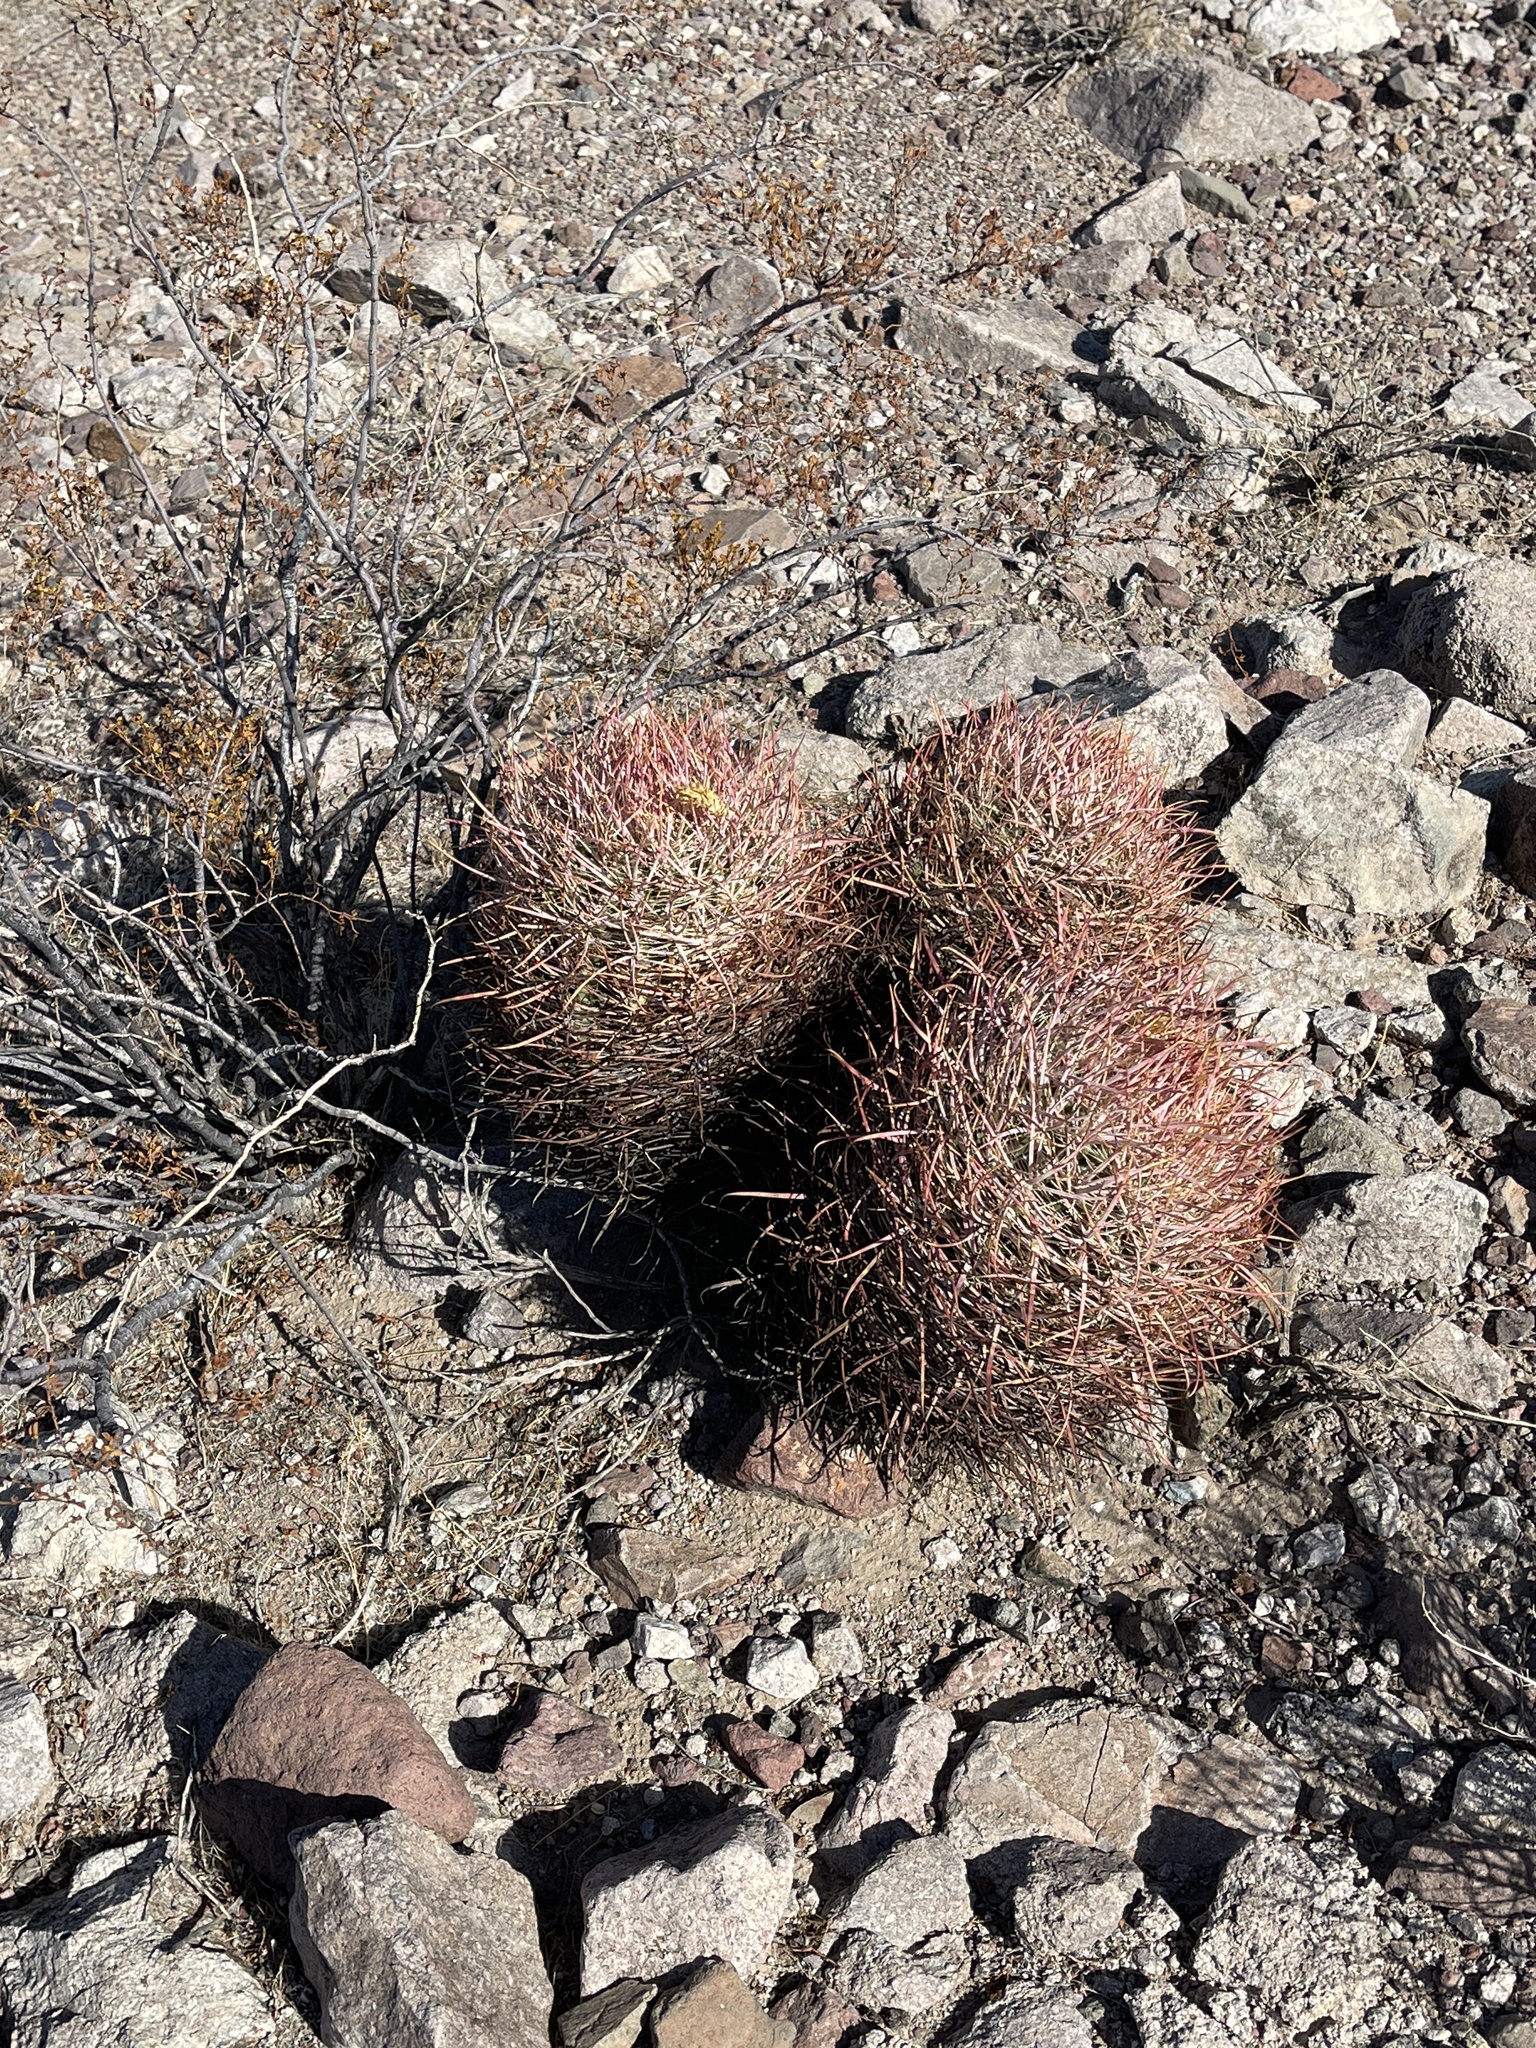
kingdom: Plantae
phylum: Tracheophyta
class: Magnoliopsida
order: Caryophyllales
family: Cactaceae
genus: Ferocactus
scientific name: Ferocactus cylindraceus
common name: California barrel cactus
